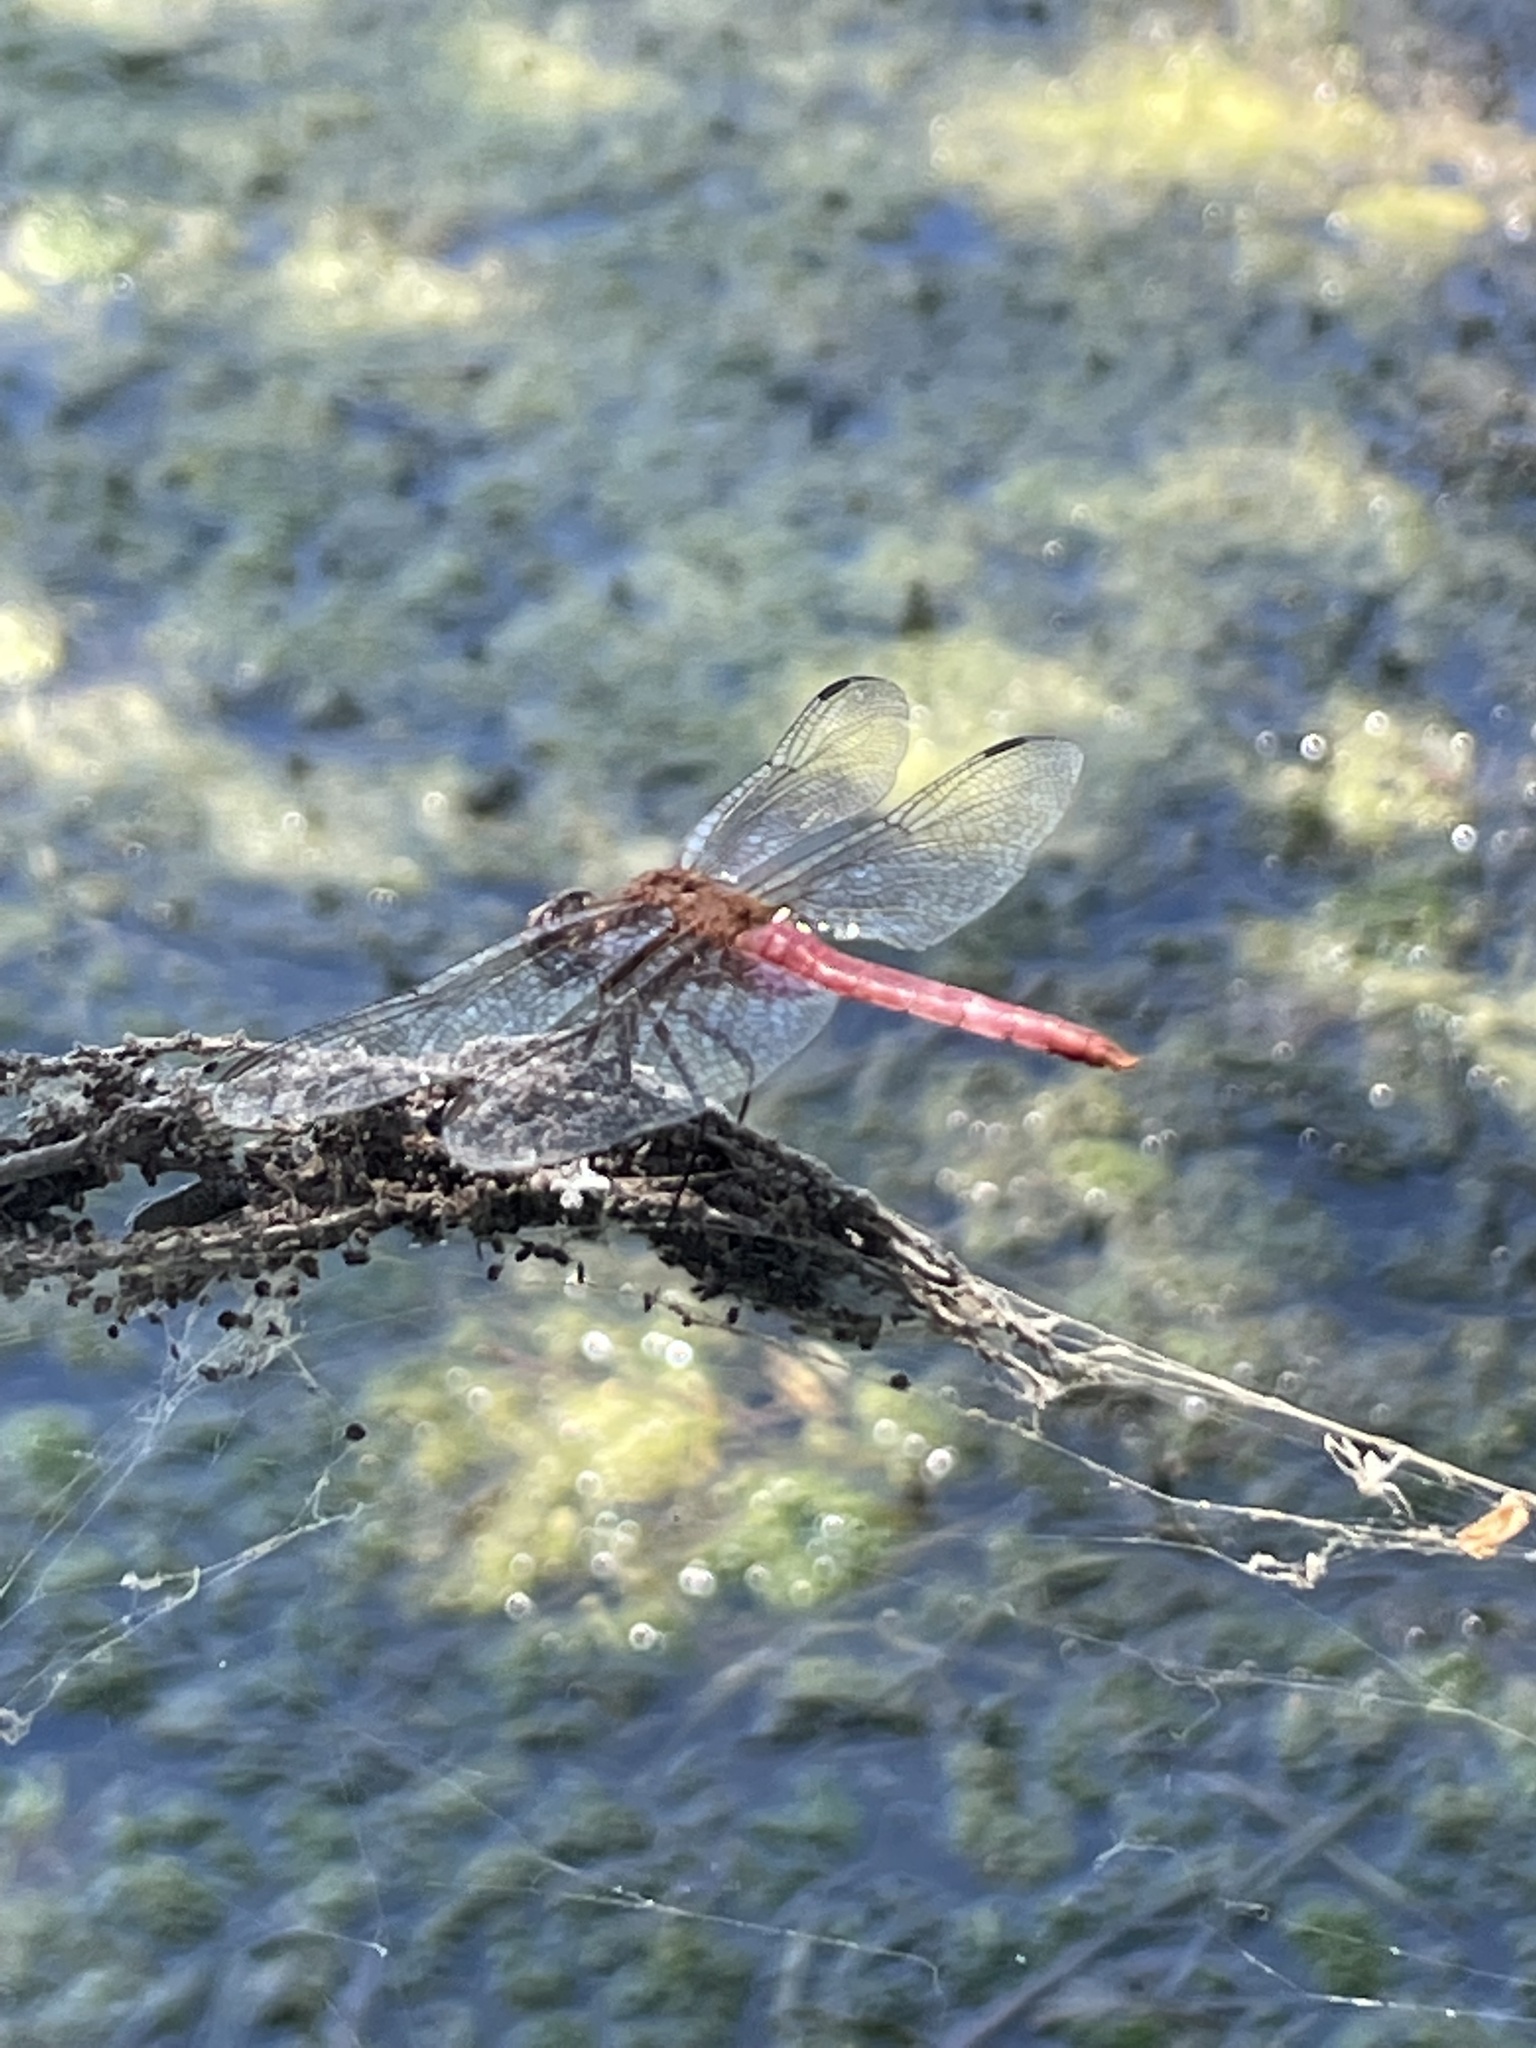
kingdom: Animalia
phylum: Arthropoda
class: Insecta
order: Odonata
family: Libellulidae
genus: Brachymesia
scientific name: Brachymesia furcata
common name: Red-taled pennant
